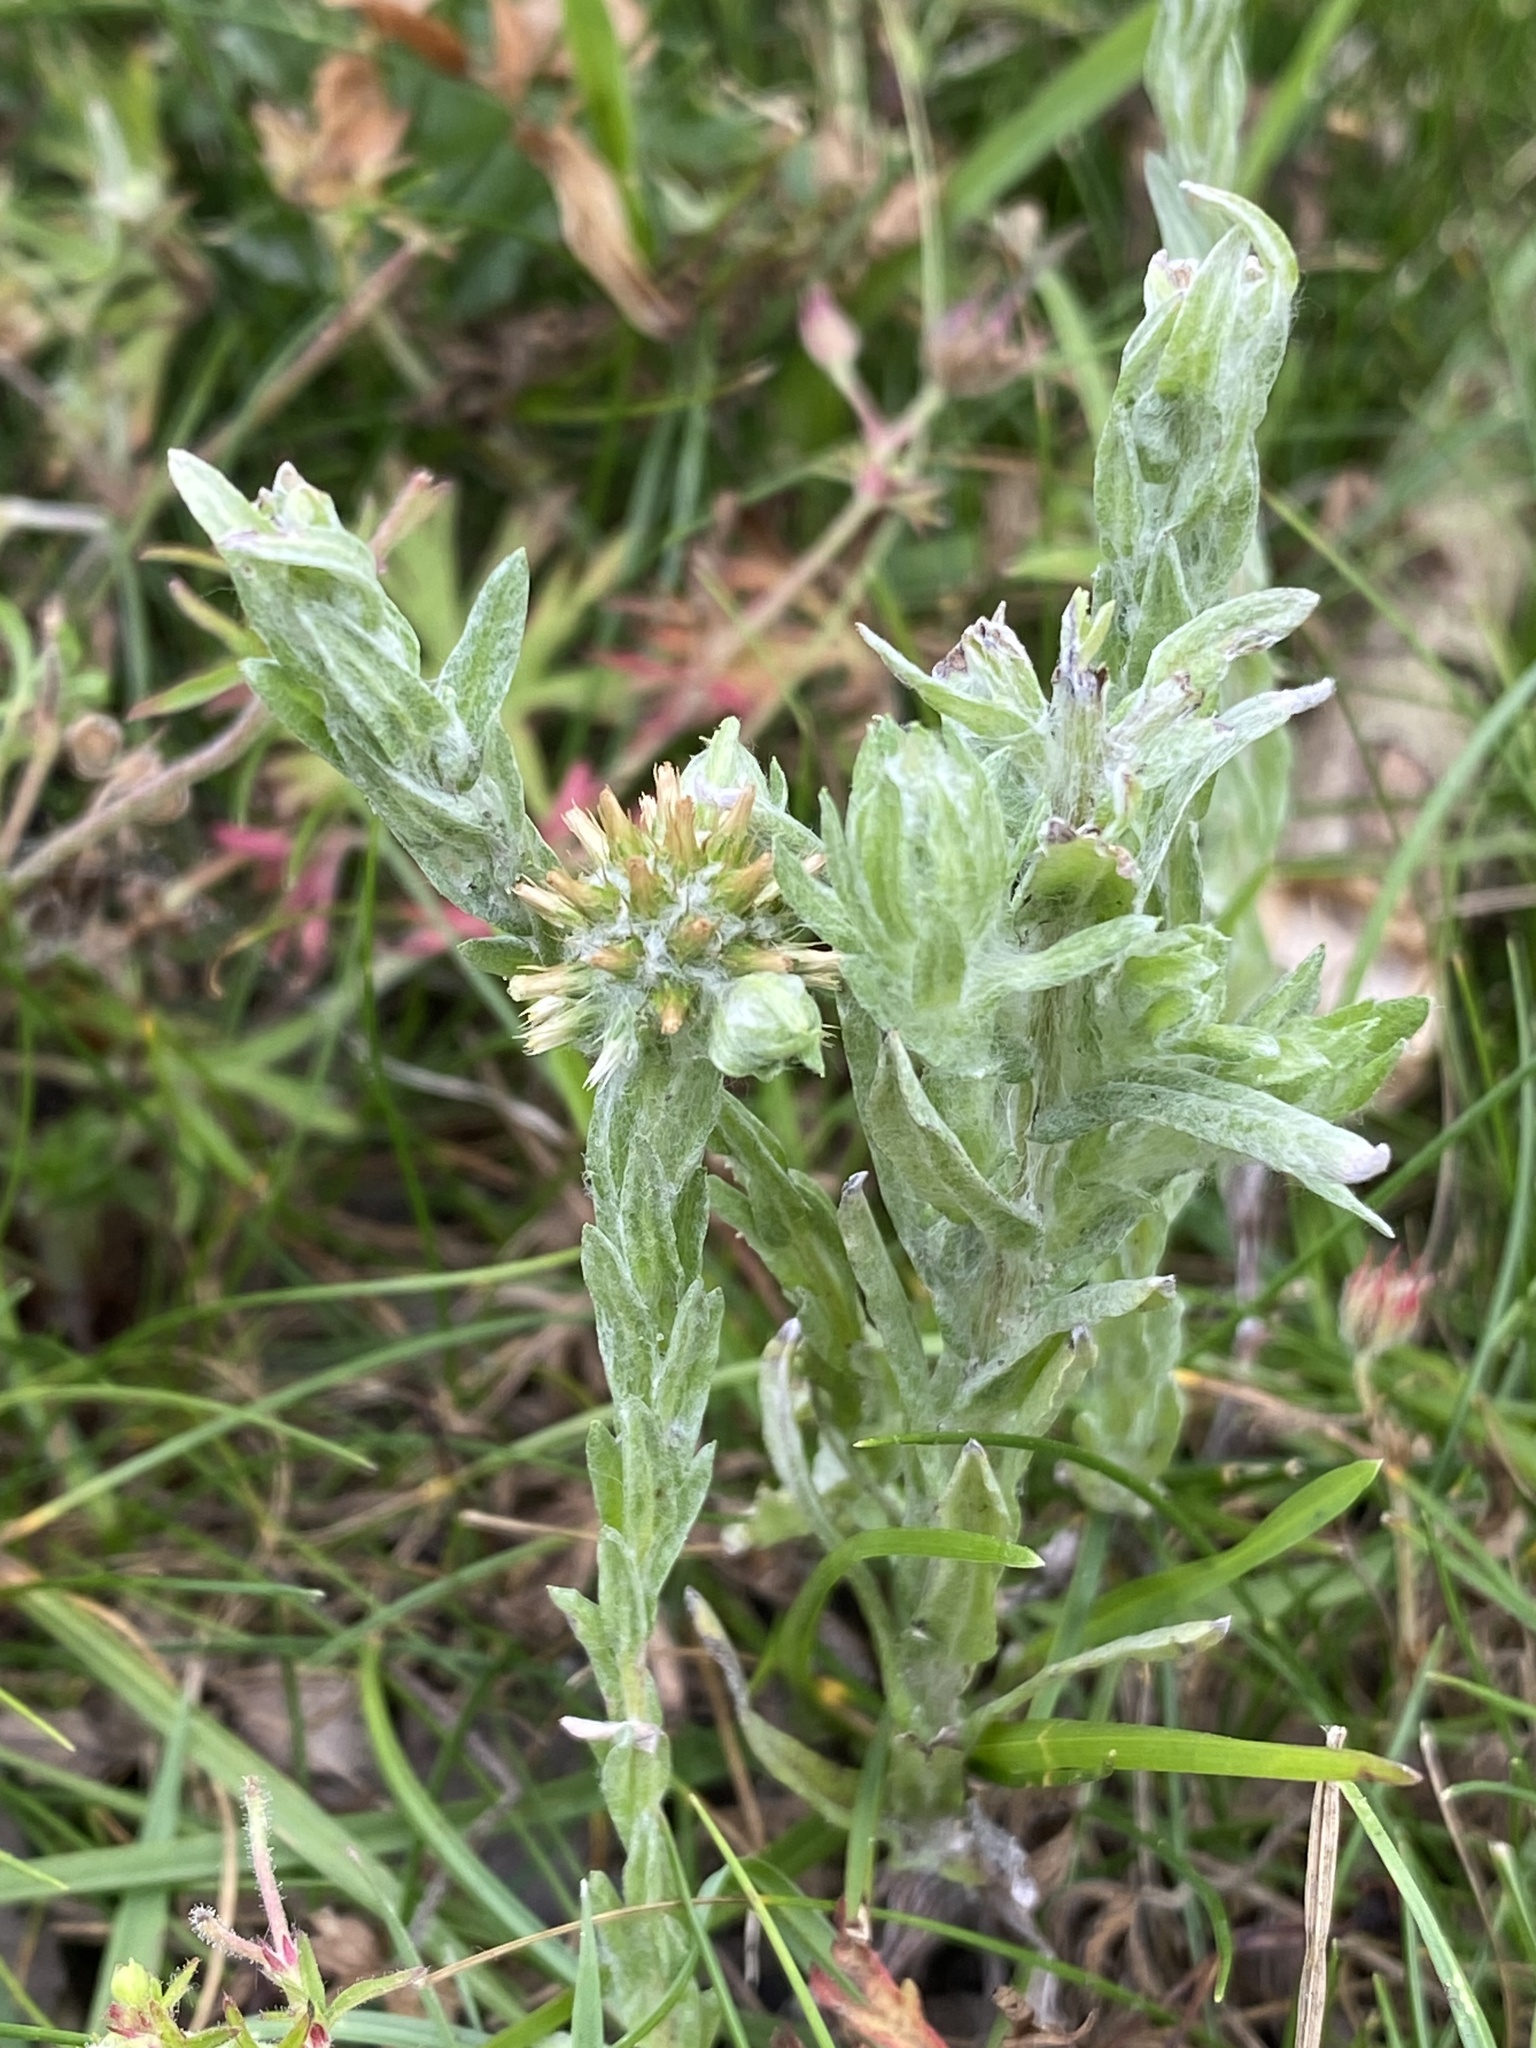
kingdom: Plantae
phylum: Tracheophyta
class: Magnoliopsida
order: Asterales
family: Asteraceae
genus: Filago
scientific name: Filago germanica
